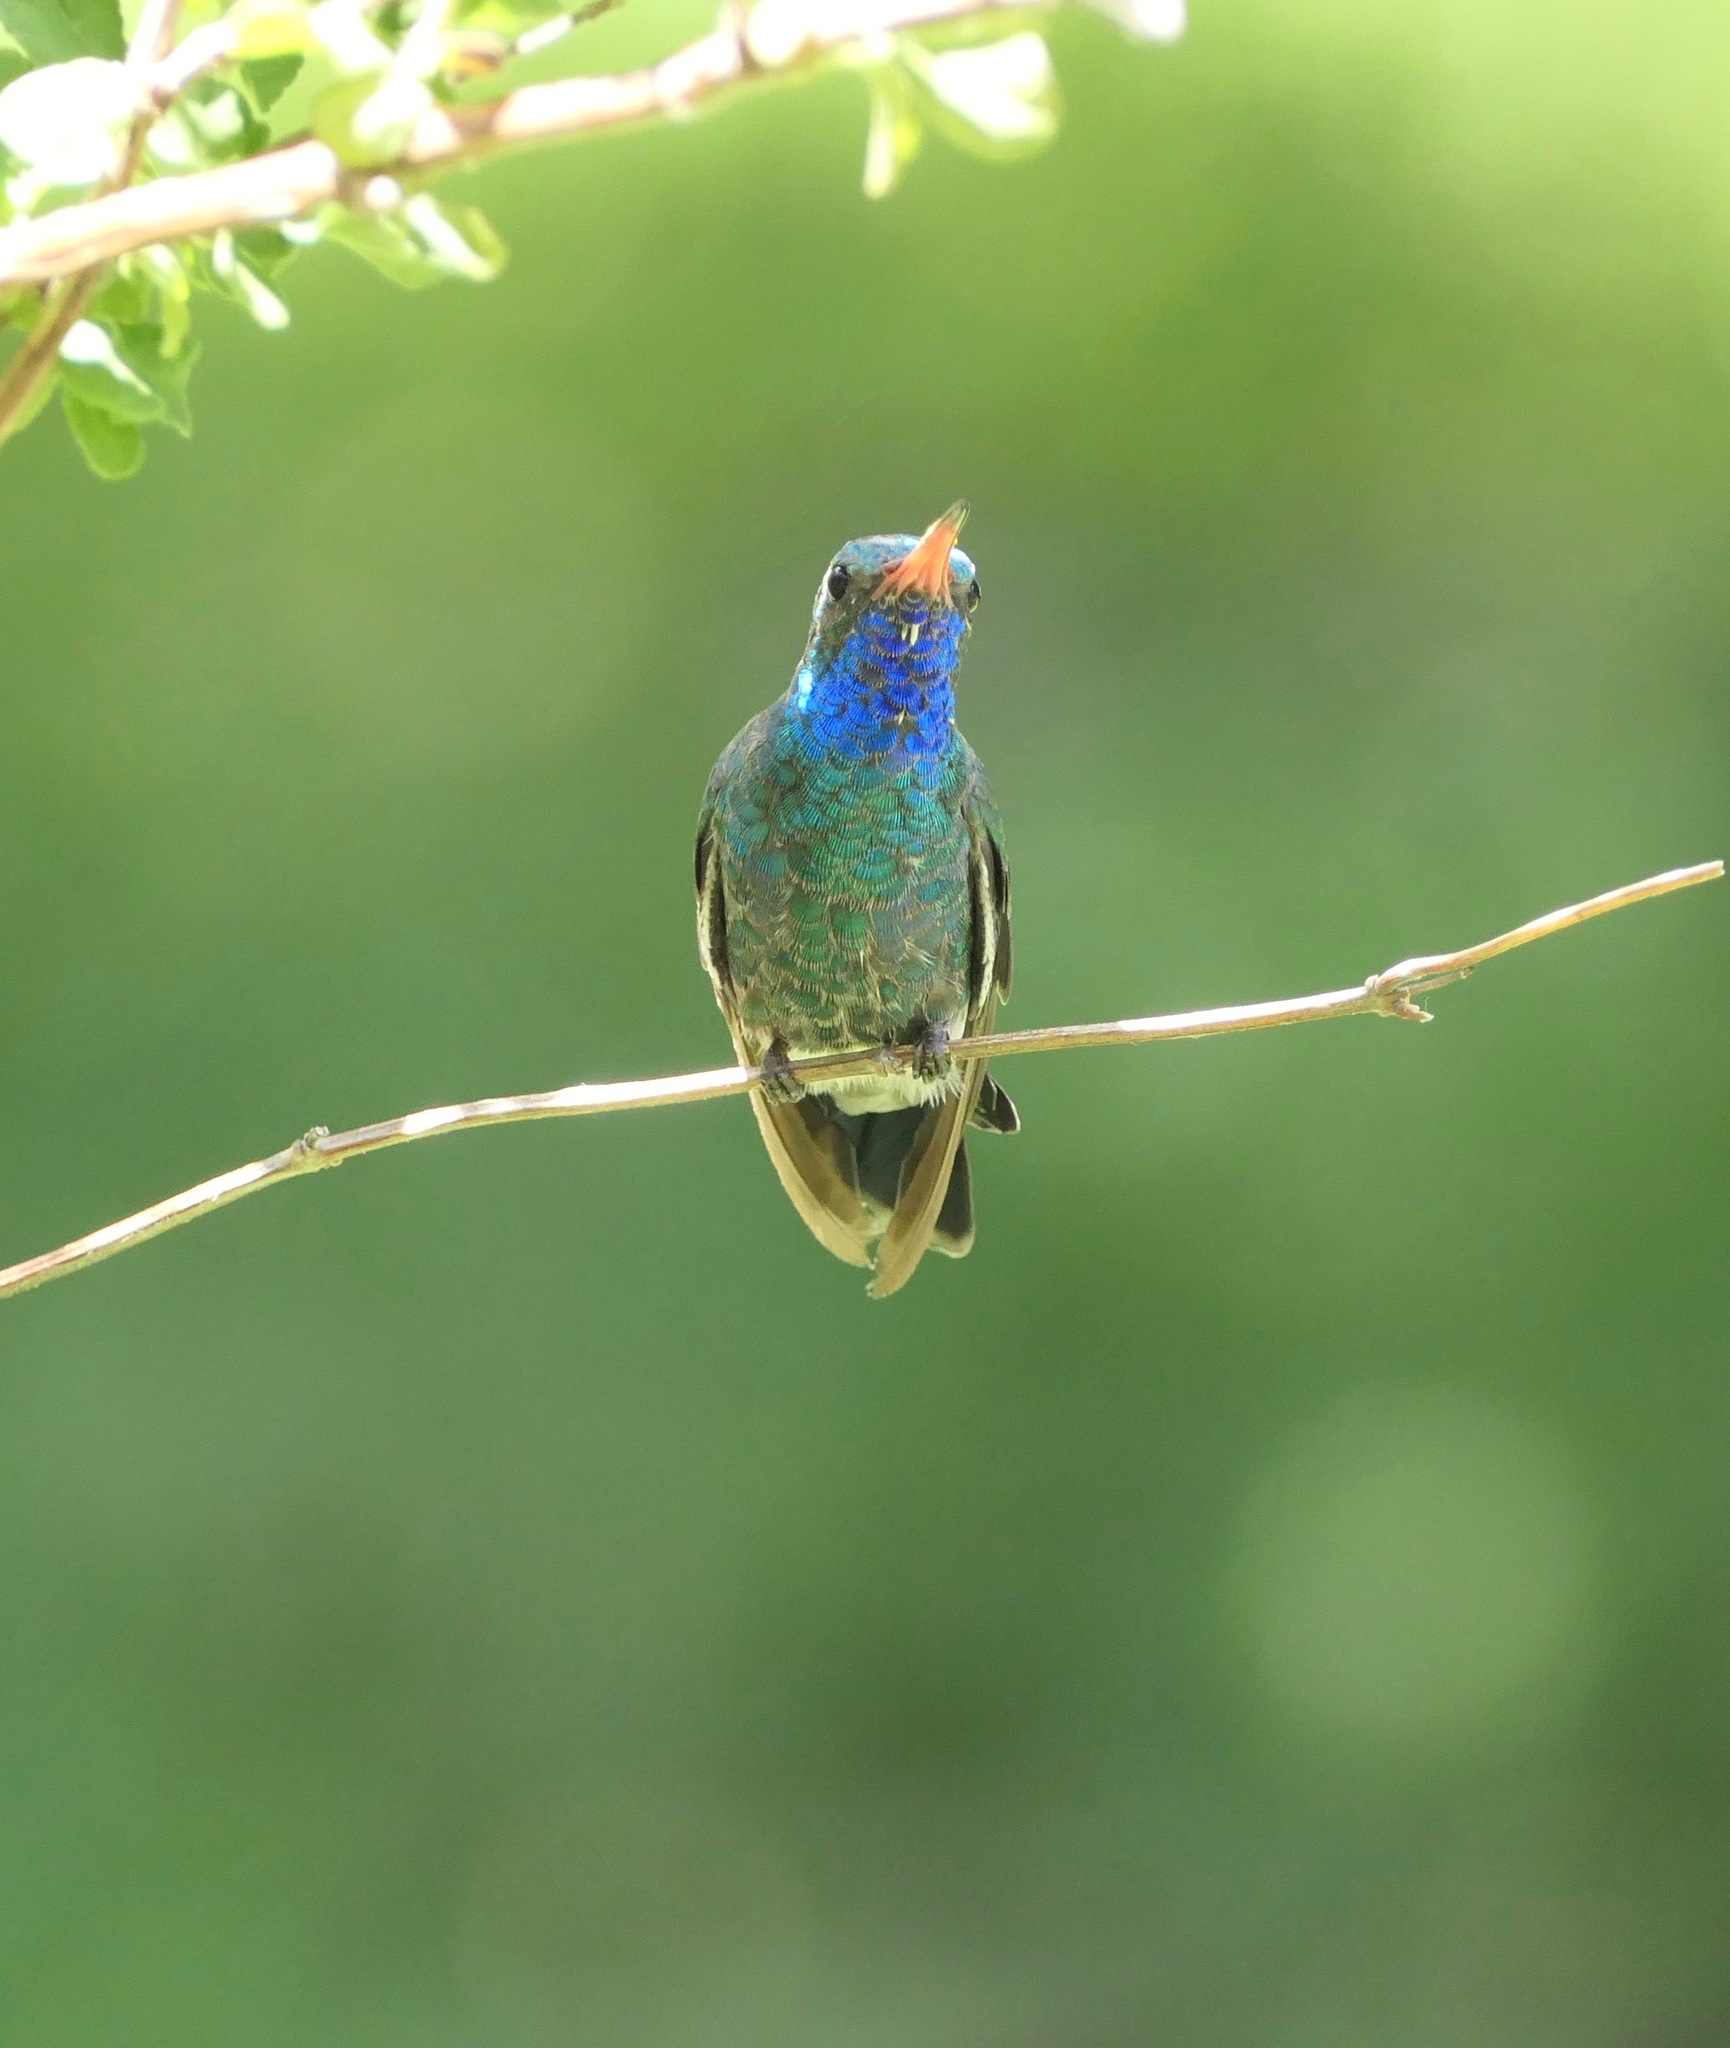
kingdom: Animalia
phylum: Chordata
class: Aves
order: Apodiformes
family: Trochilidae
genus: Cynanthus
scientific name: Cynanthus latirostris
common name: Broad-billed hummingbird
